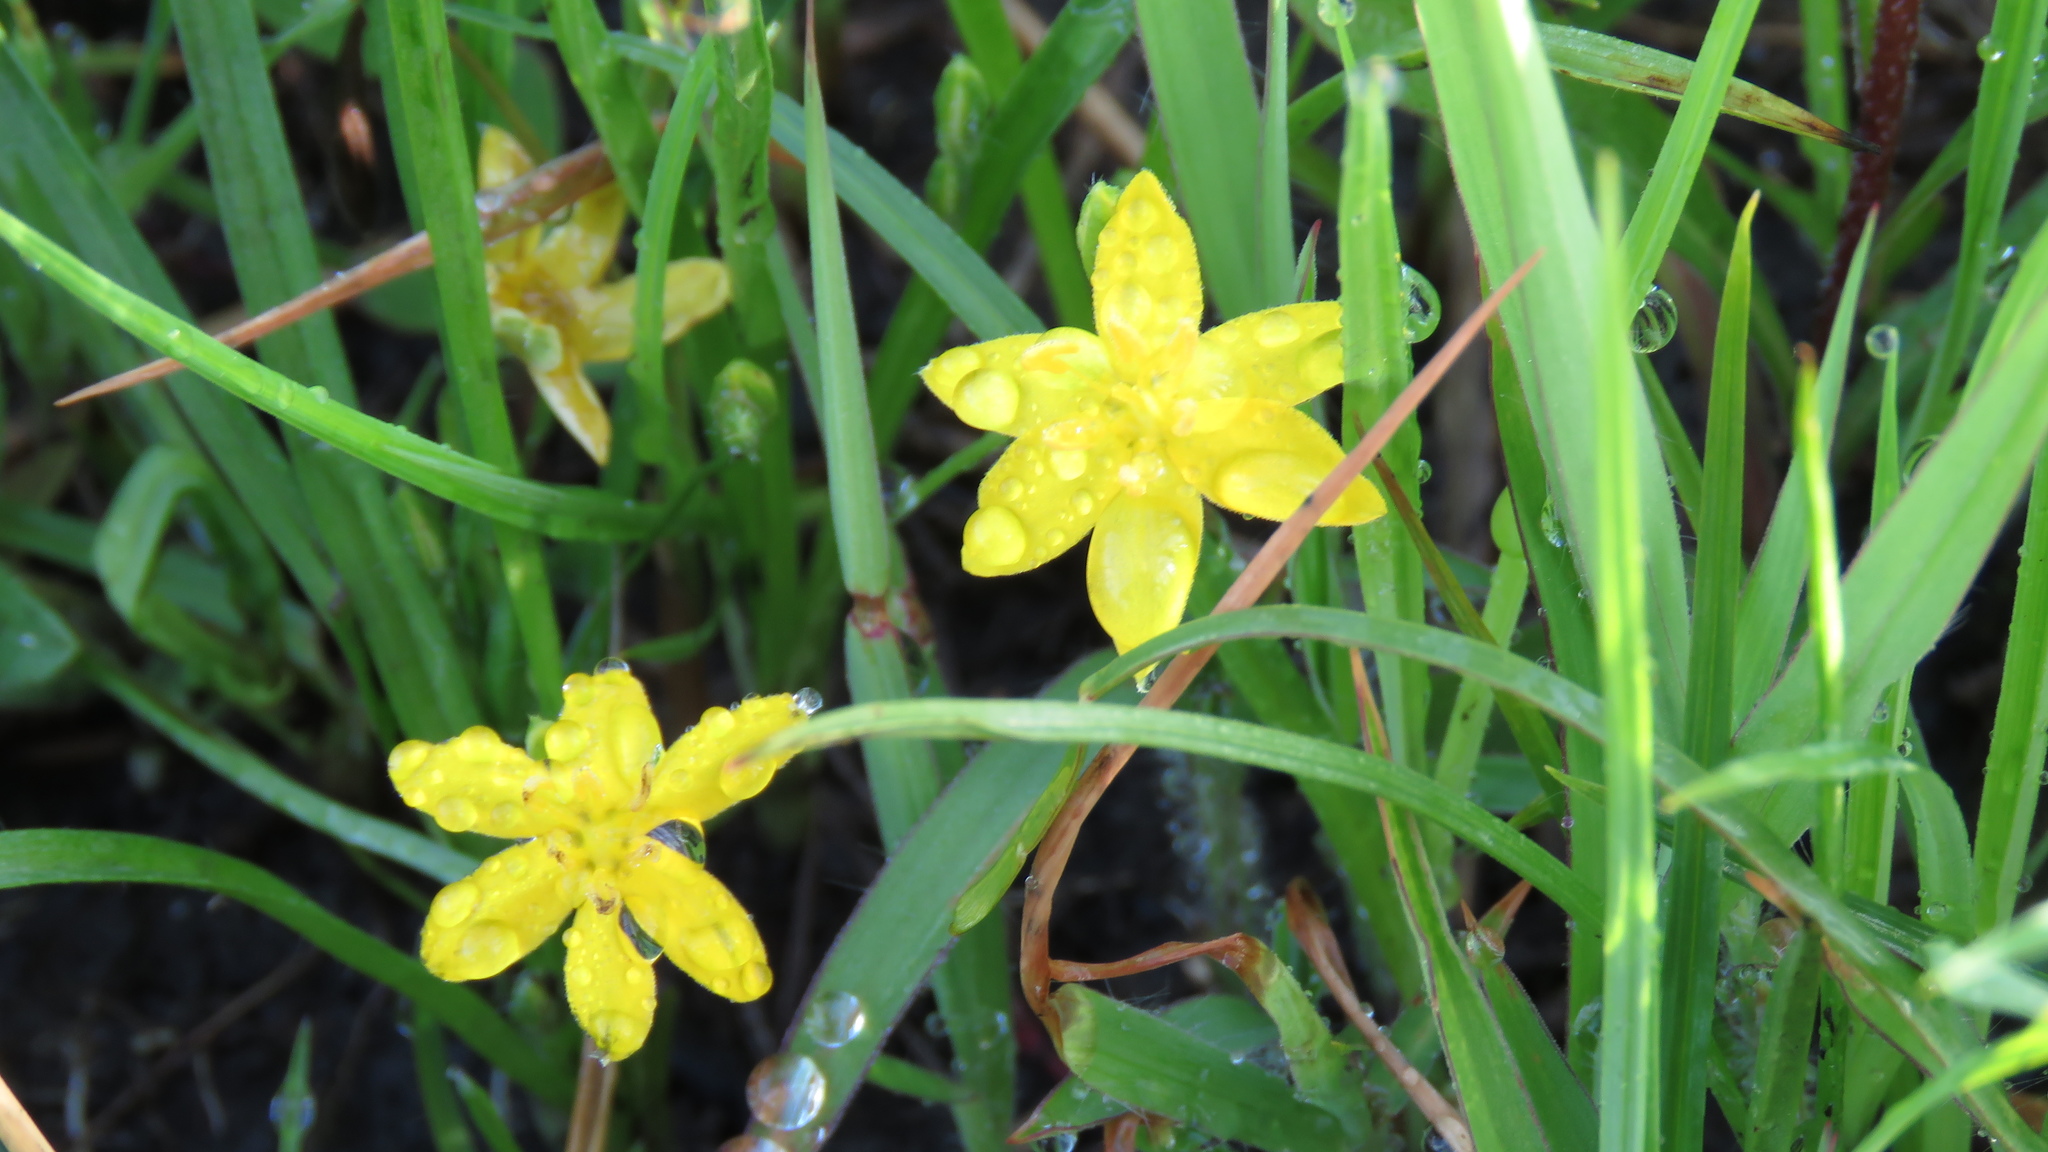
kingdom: Plantae
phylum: Tracheophyta
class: Liliopsida
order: Asparagales
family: Hypoxidaceae
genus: Hypoxis
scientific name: Hypoxis hirsuta
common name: Common goldstar
